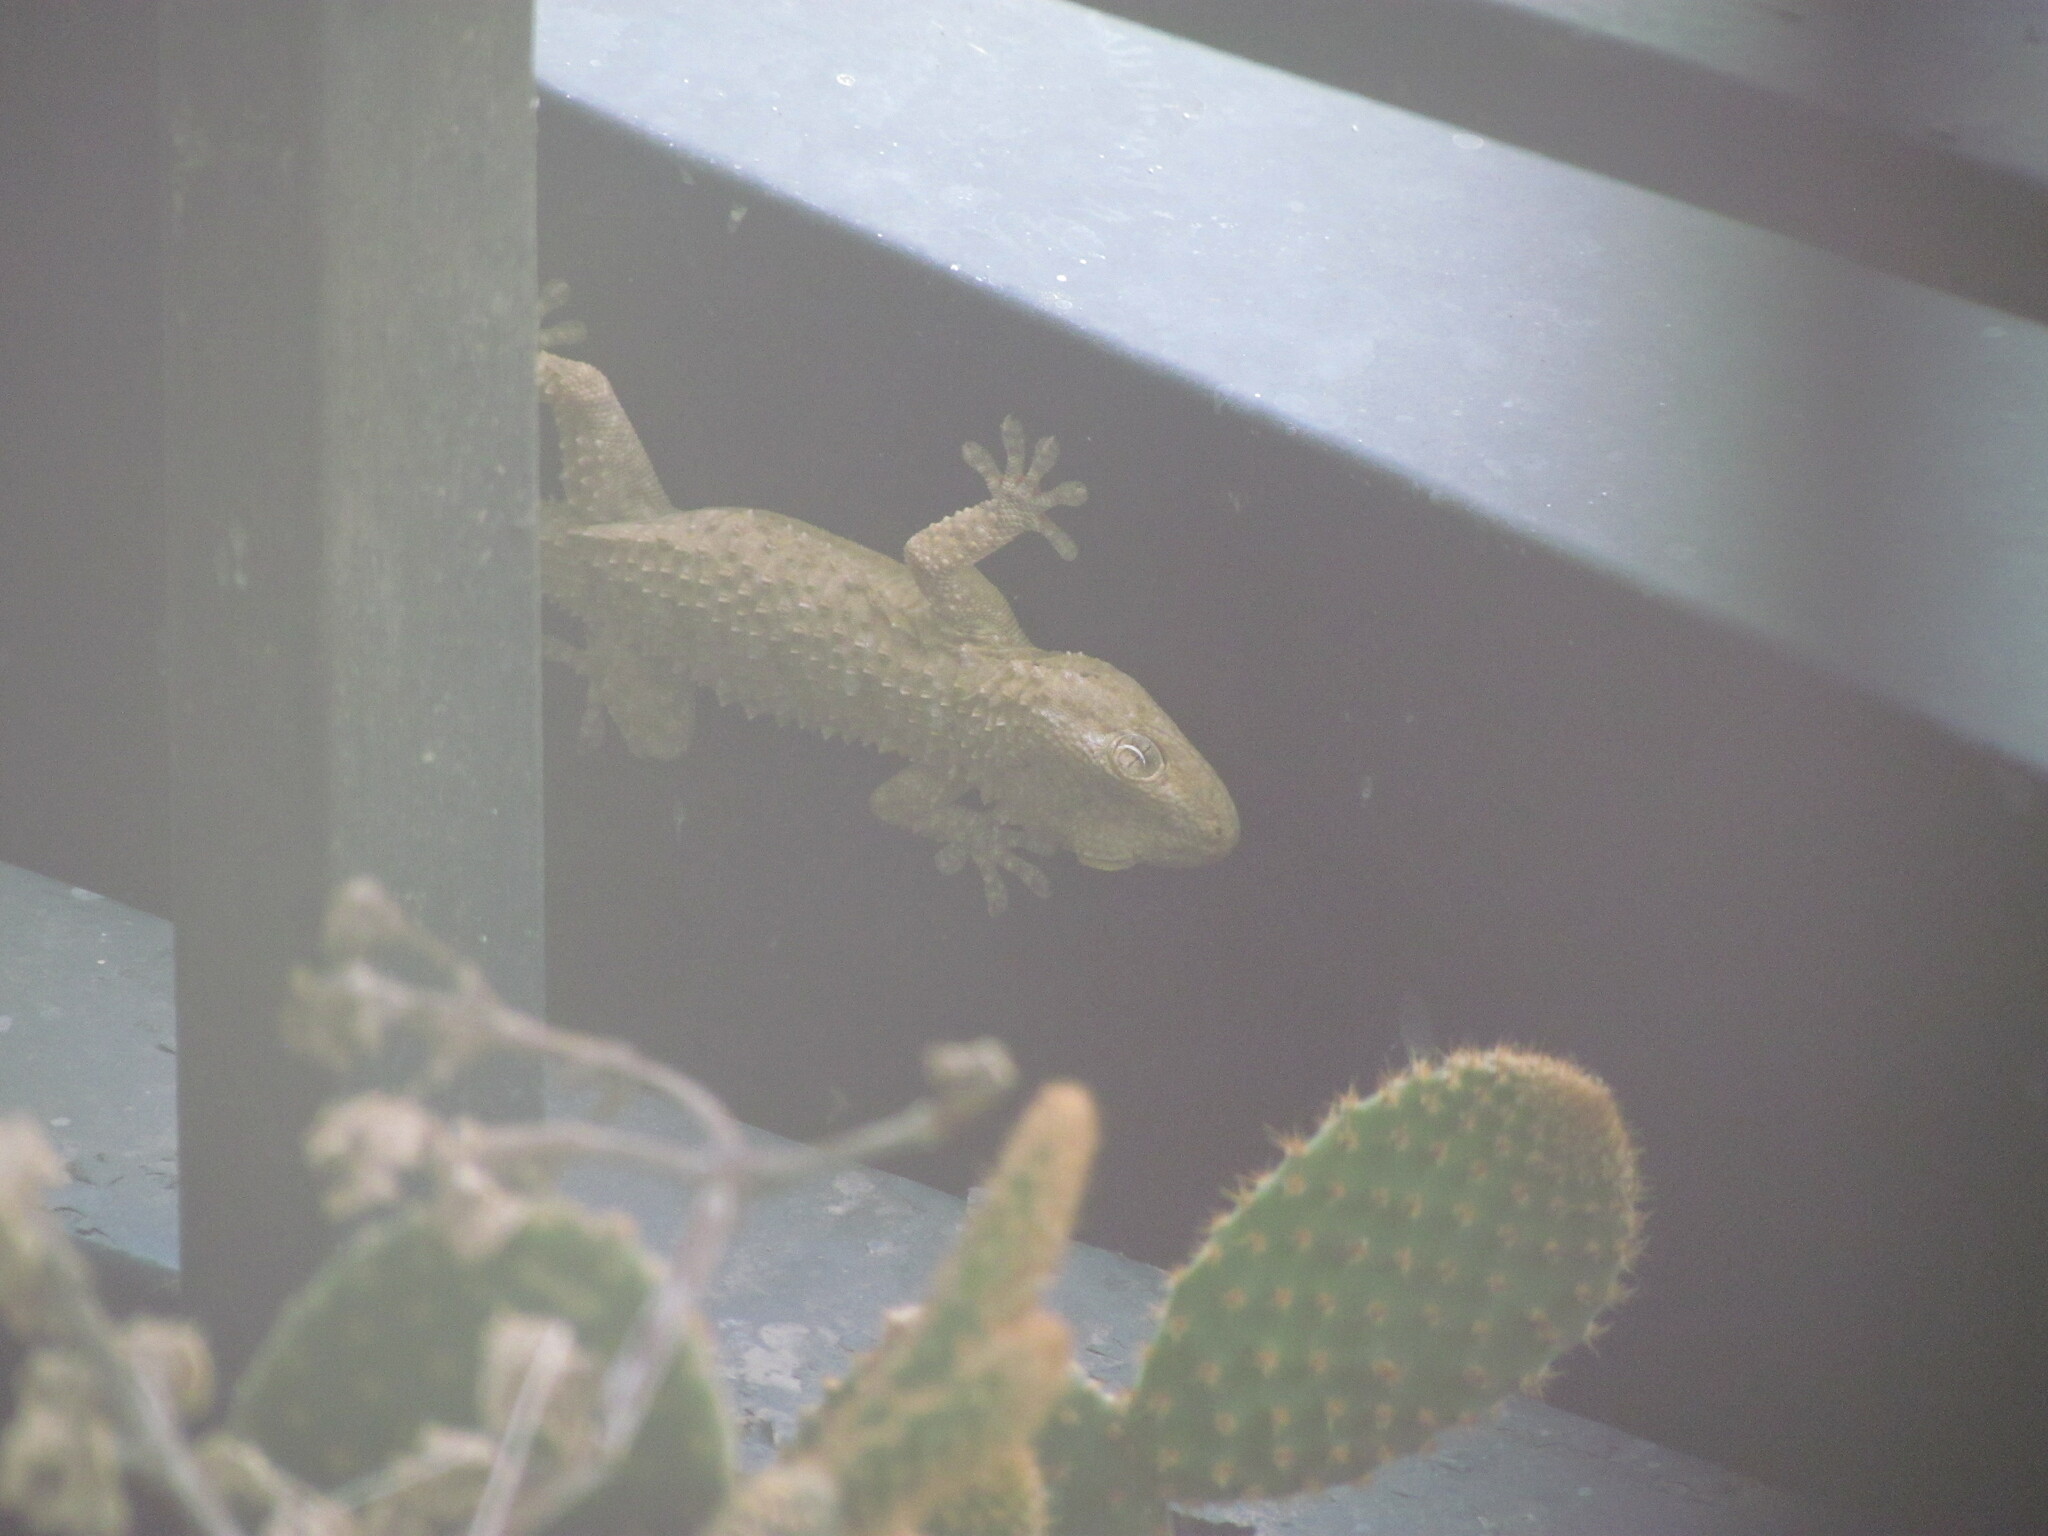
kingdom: Animalia
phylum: Chordata
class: Squamata
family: Phyllodactylidae
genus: Tarentola
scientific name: Tarentola mauritanica
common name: Moorish gecko
